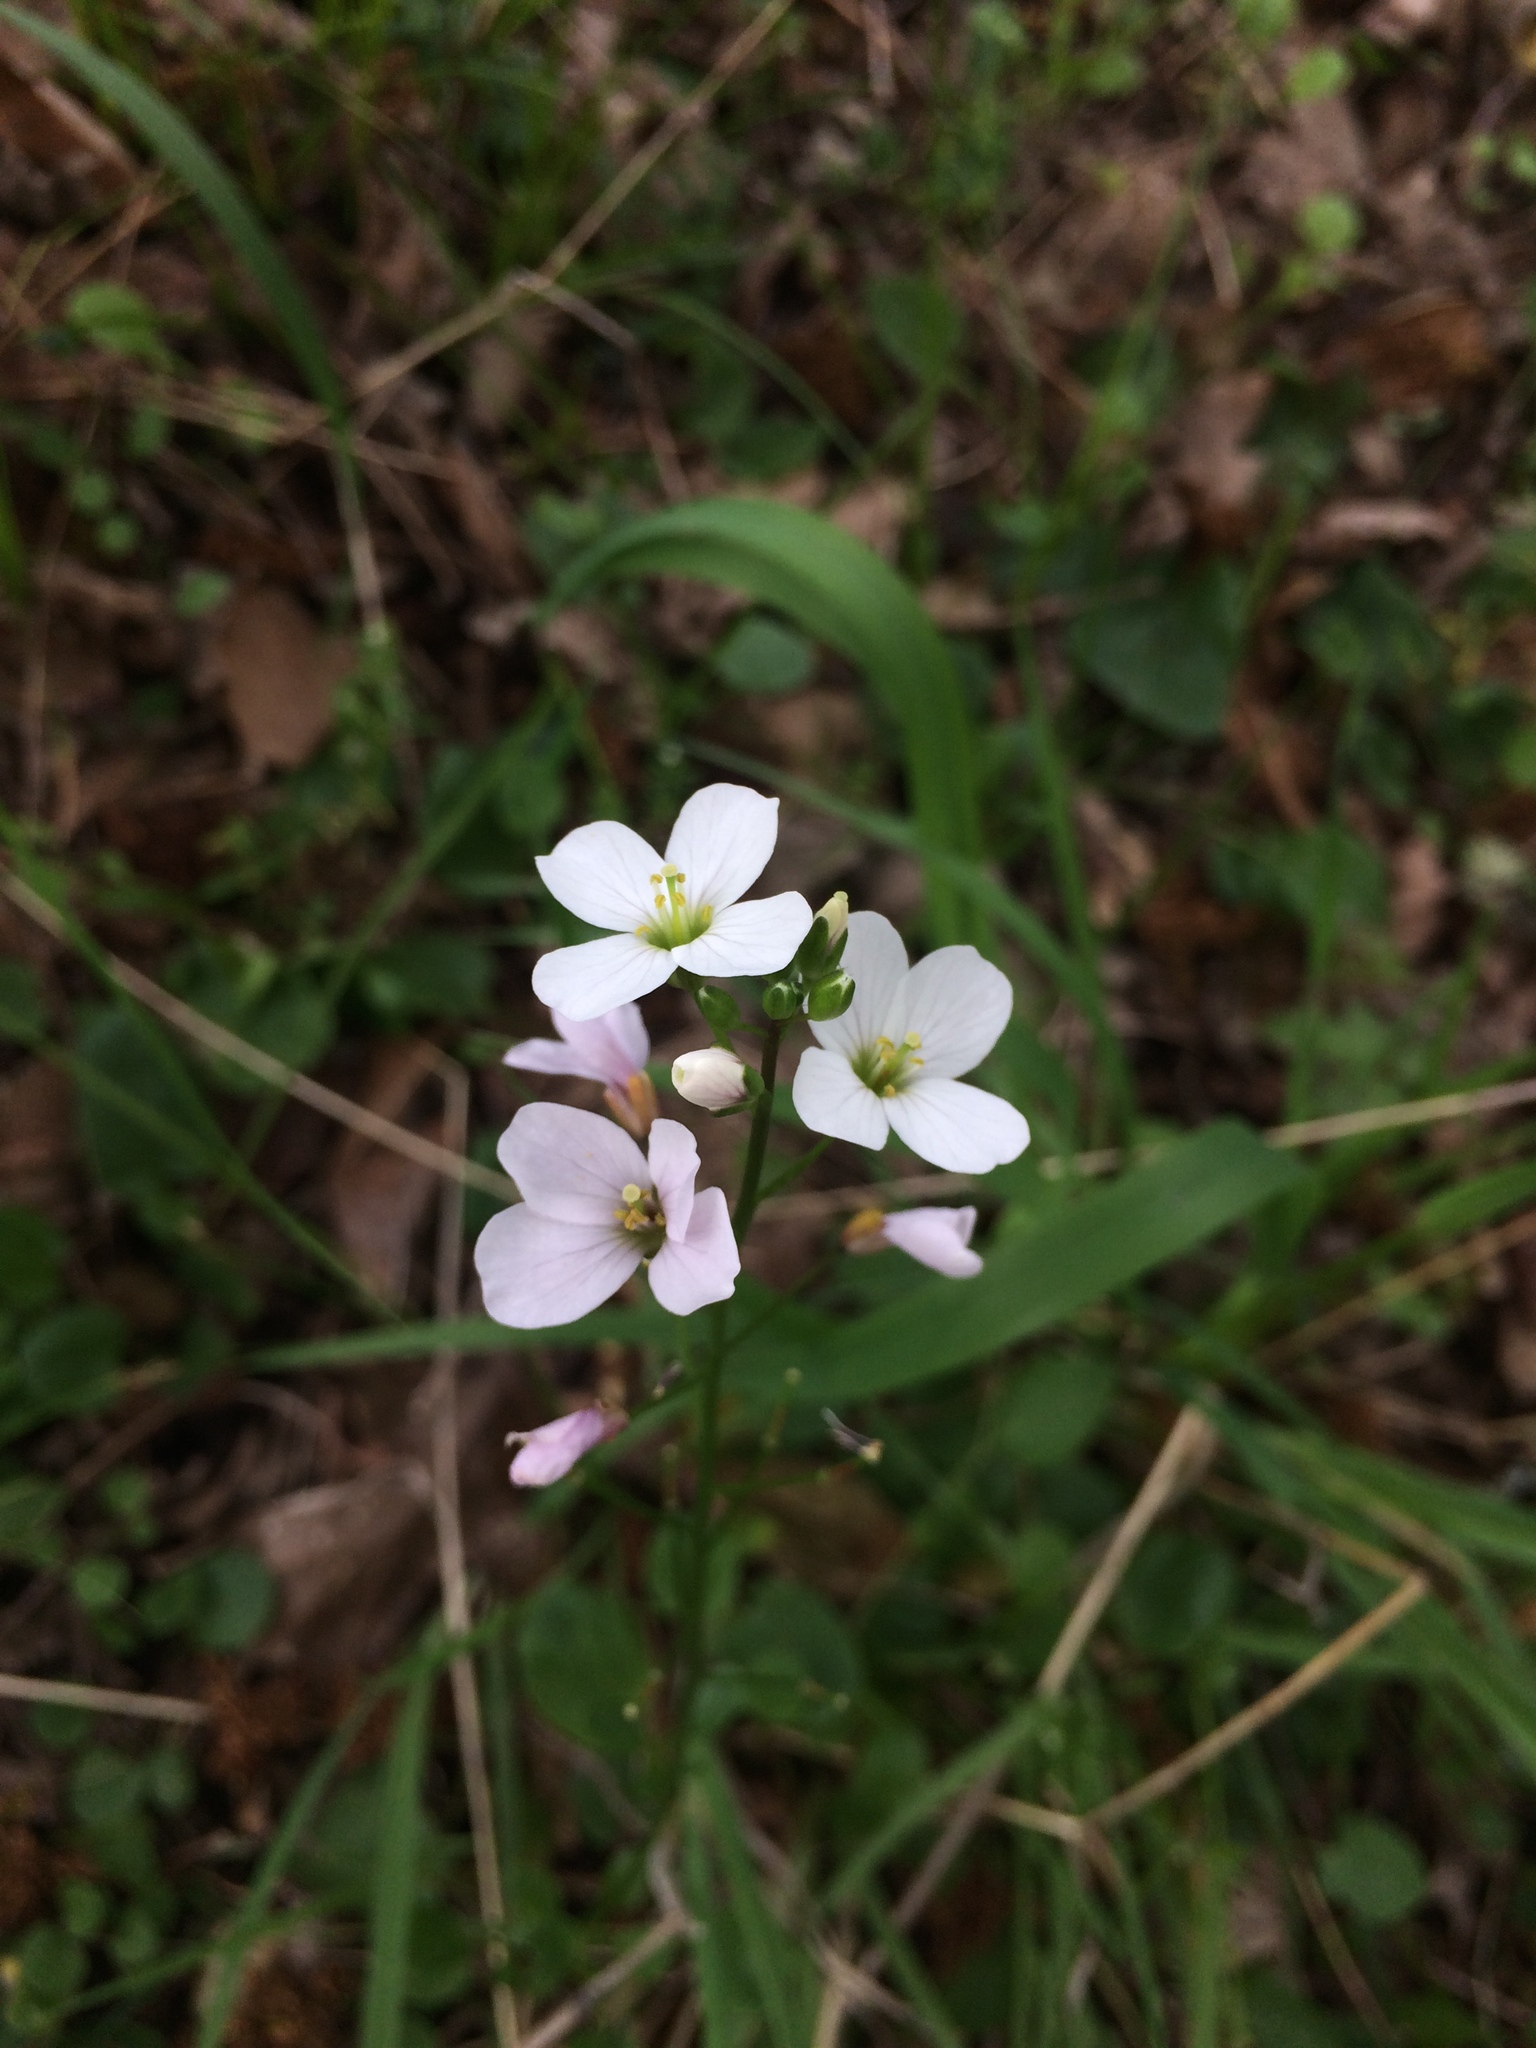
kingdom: Plantae
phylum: Tracheophyta
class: Magnoliopsida
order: Brassicales
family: Brassicaceae
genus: Cardamine
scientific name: Cardamine californica
